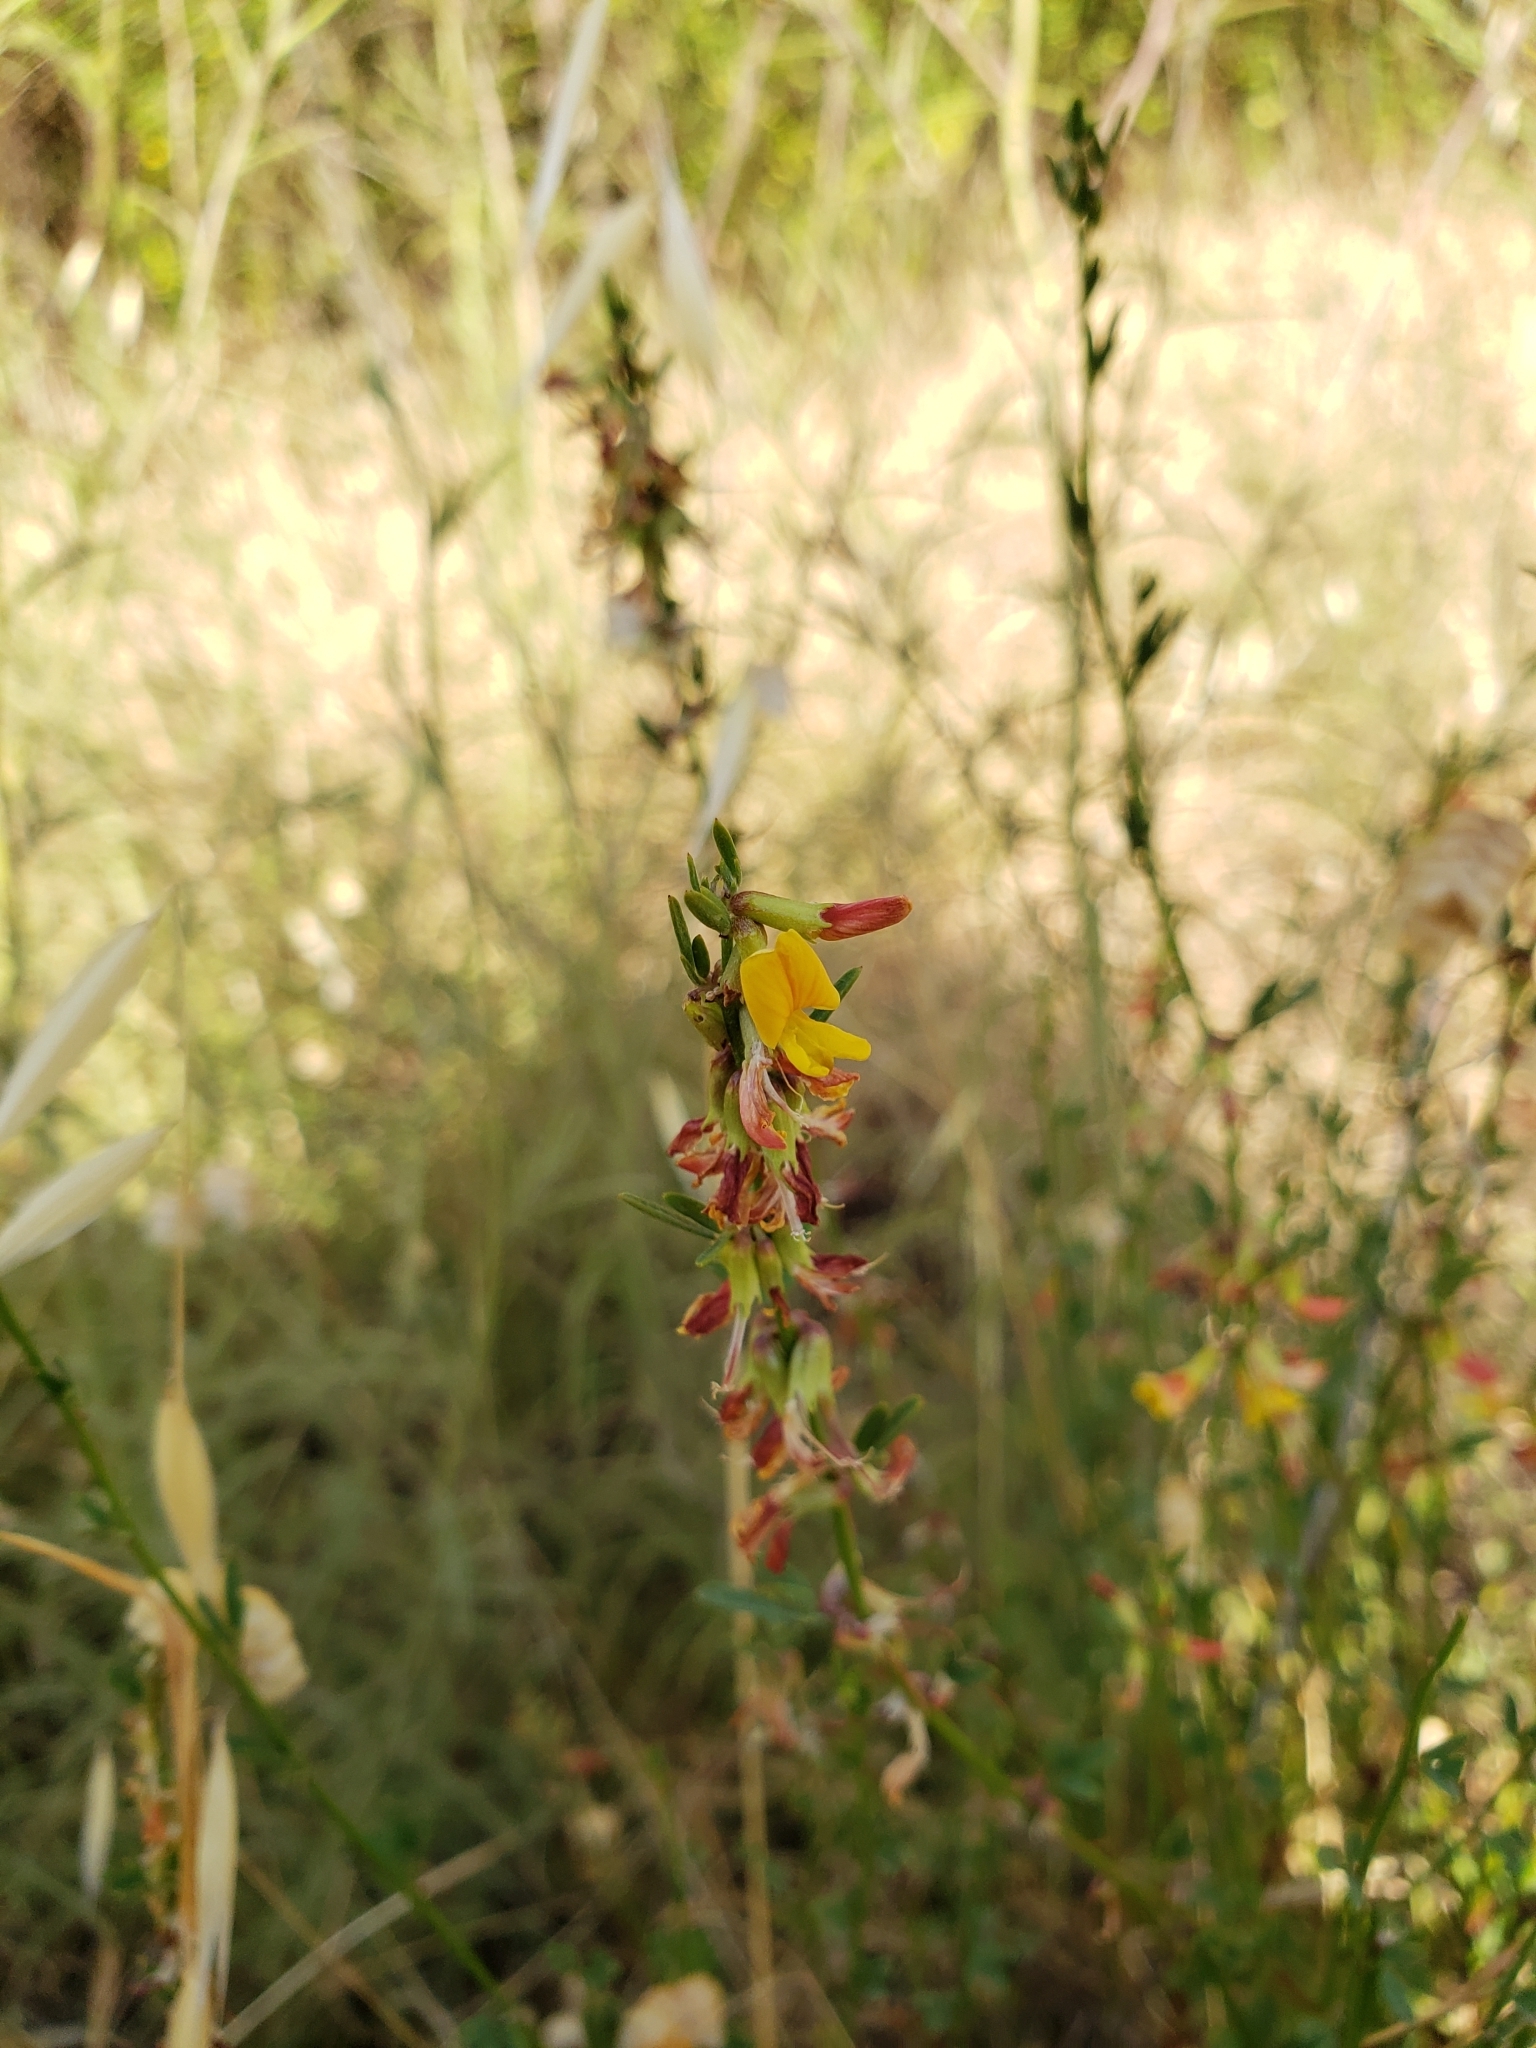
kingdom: Plantae
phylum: Tracheophyta
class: Magnoliopsida
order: Fabales
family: Fabaceae
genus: Acmispon
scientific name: Acmispon glaber
